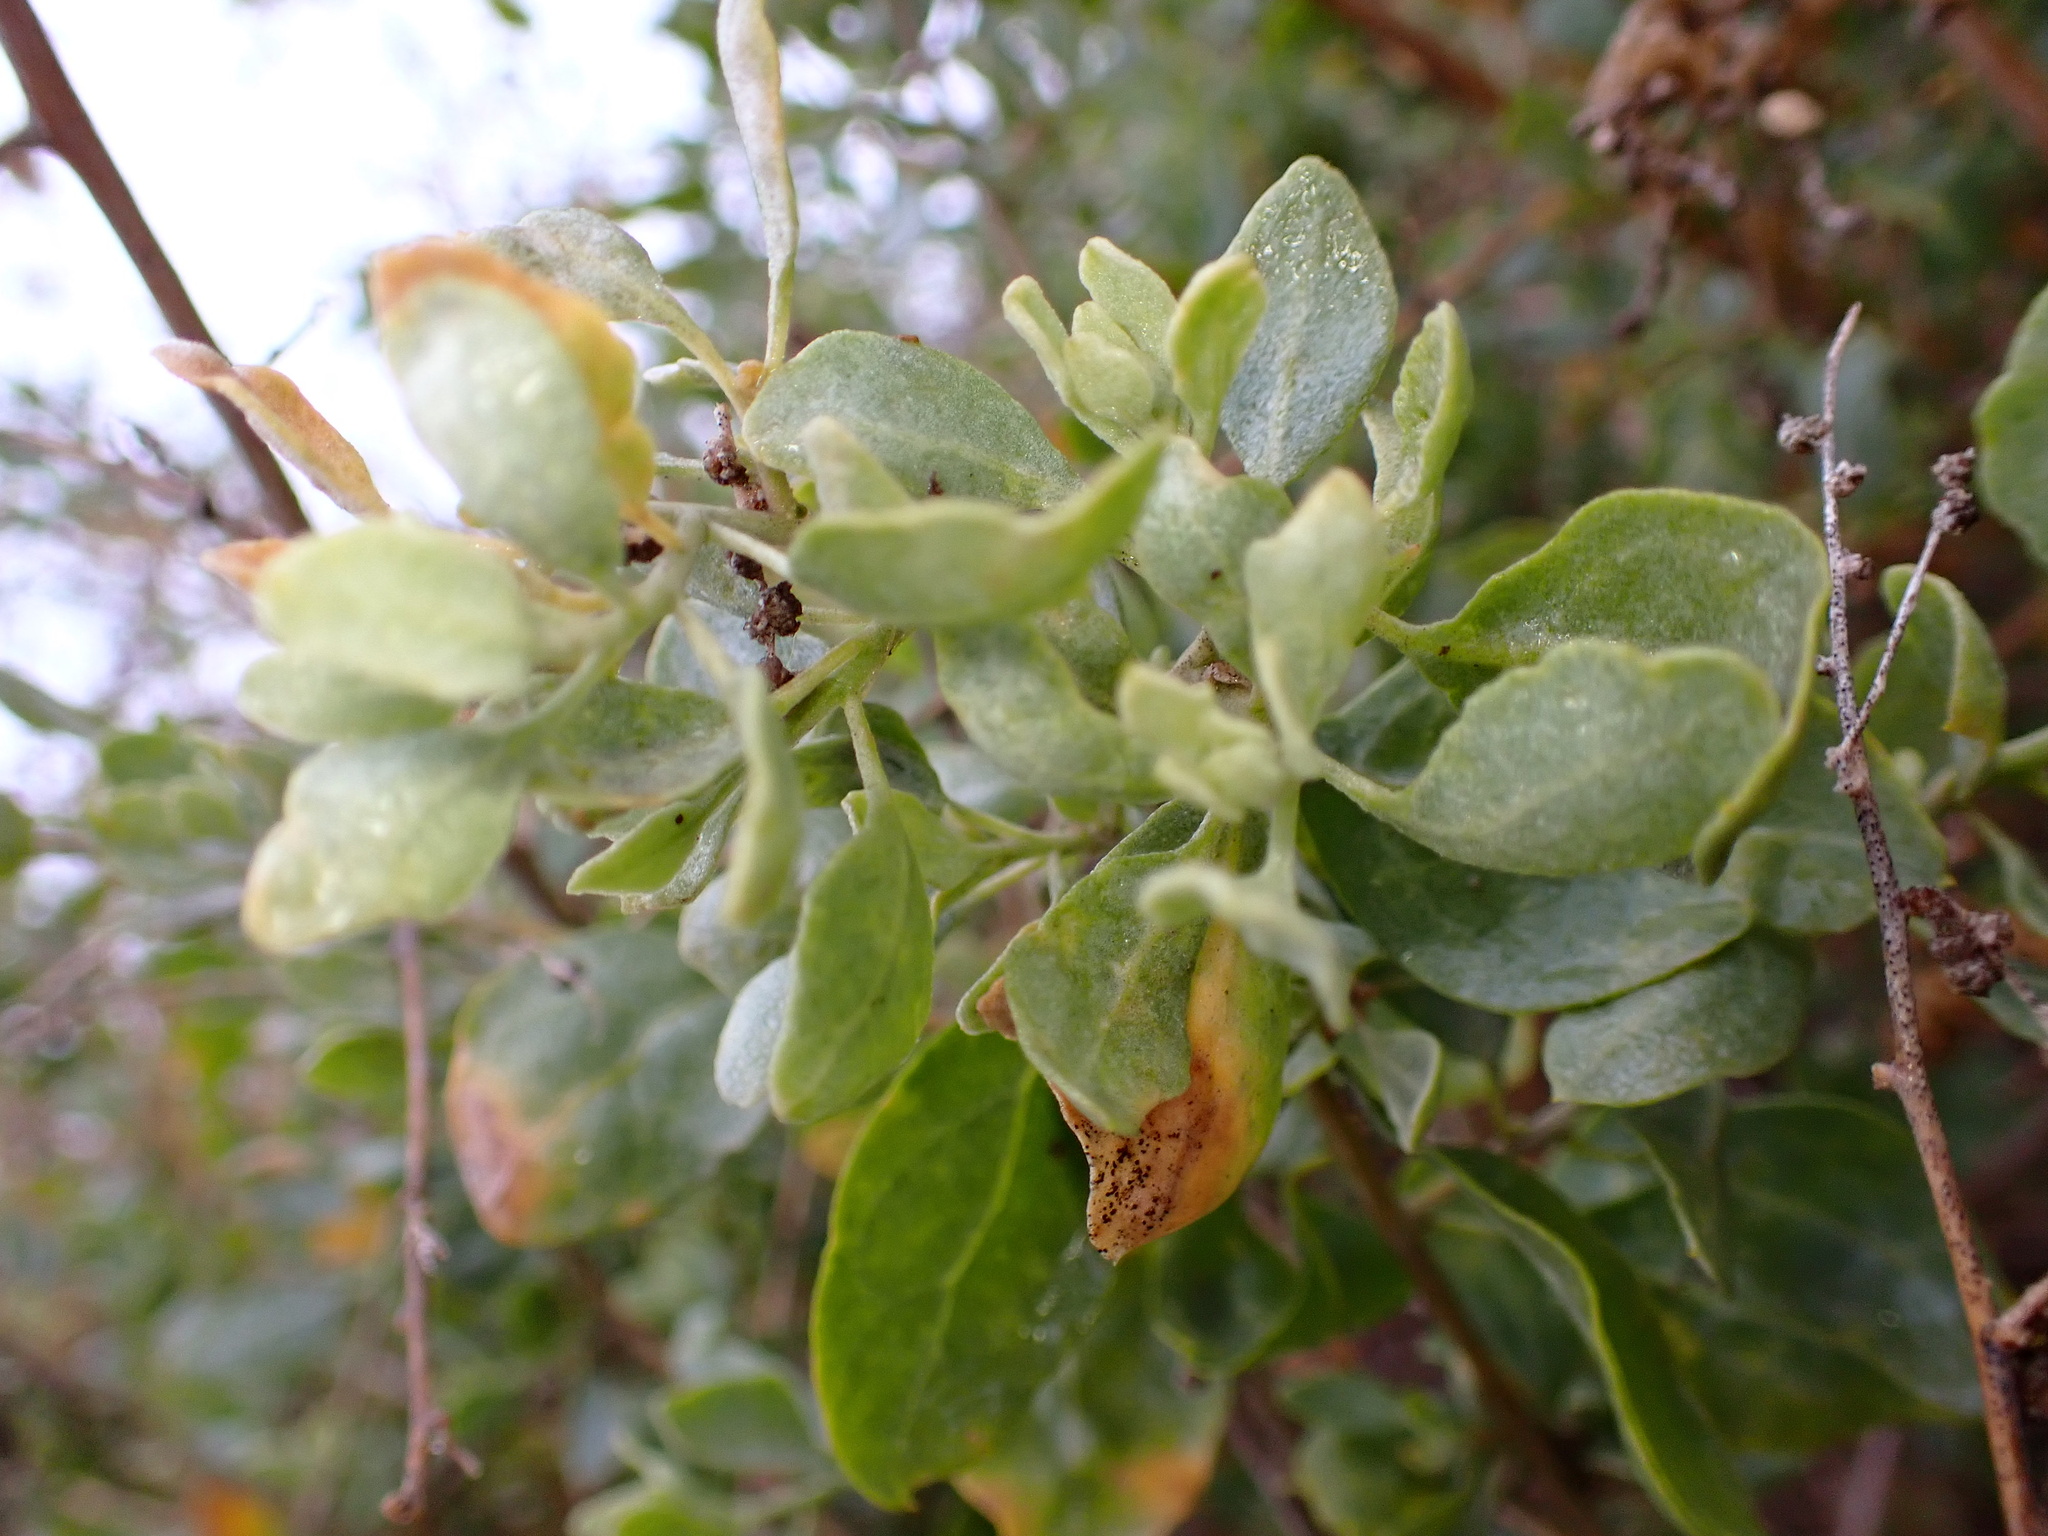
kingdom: Plantae
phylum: Tracheophyta
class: Magnoliopsida
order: Caryophyllales
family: Amaranthaceae
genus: Atriplex
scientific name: Atriplex lentiformis
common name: Big saltbush
